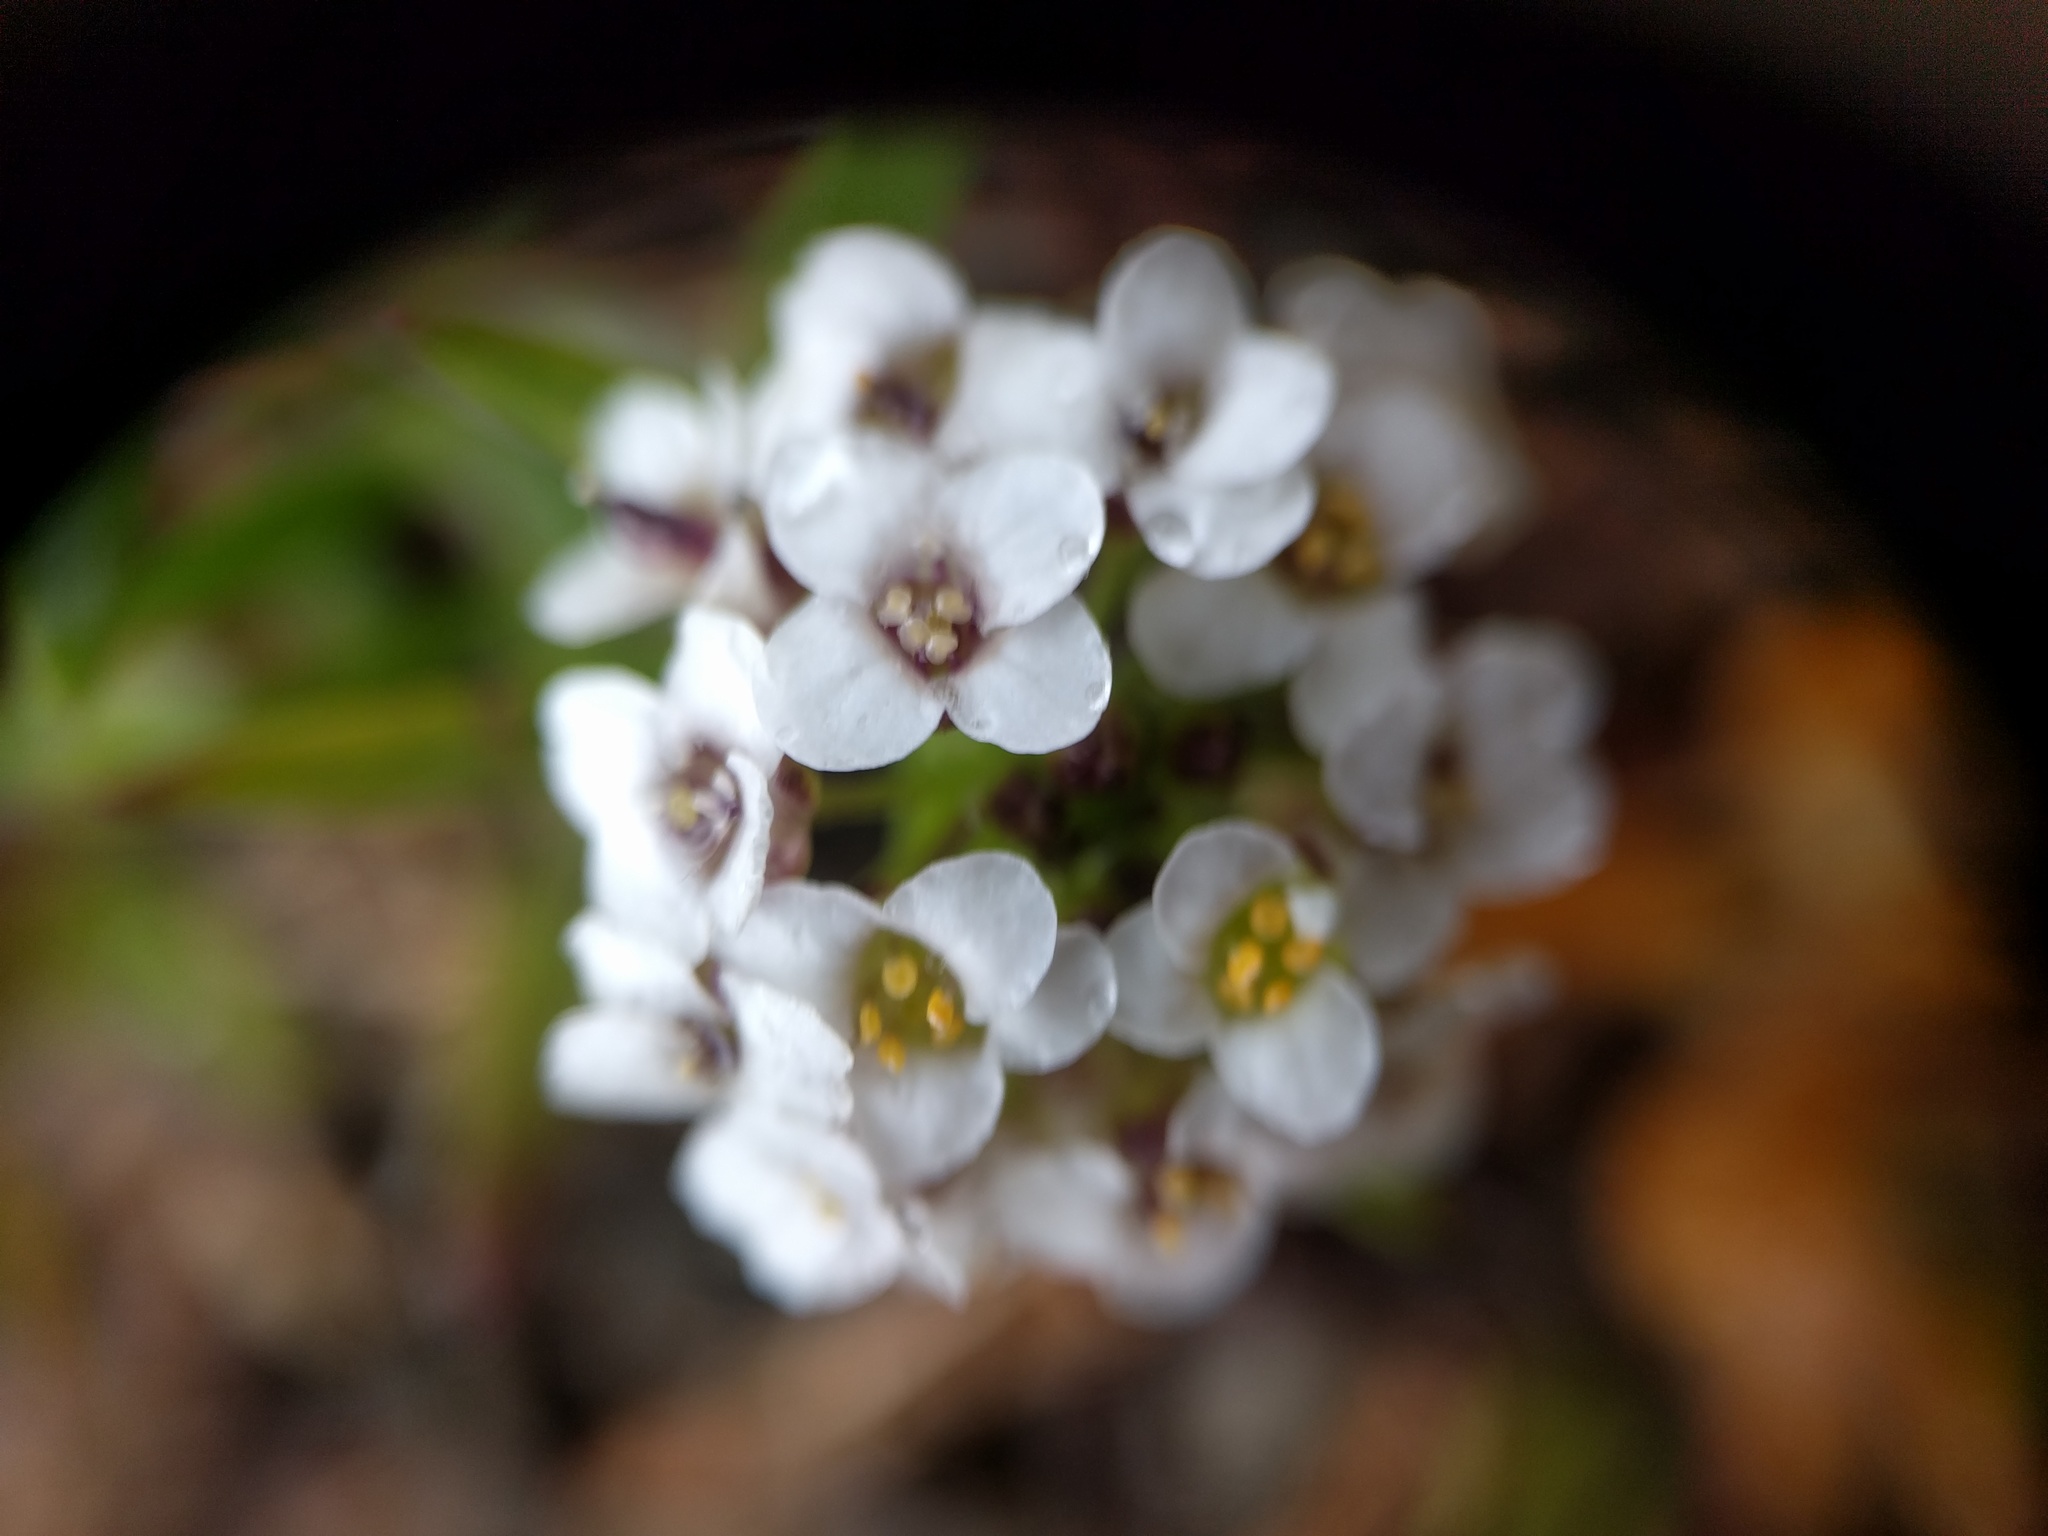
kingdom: Plantae
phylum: Tracheophyta
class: Magnoliopsida
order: Brassicales
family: Brassicaceae
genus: Lobularia
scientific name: Lobularia maritima
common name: Sweet alison
